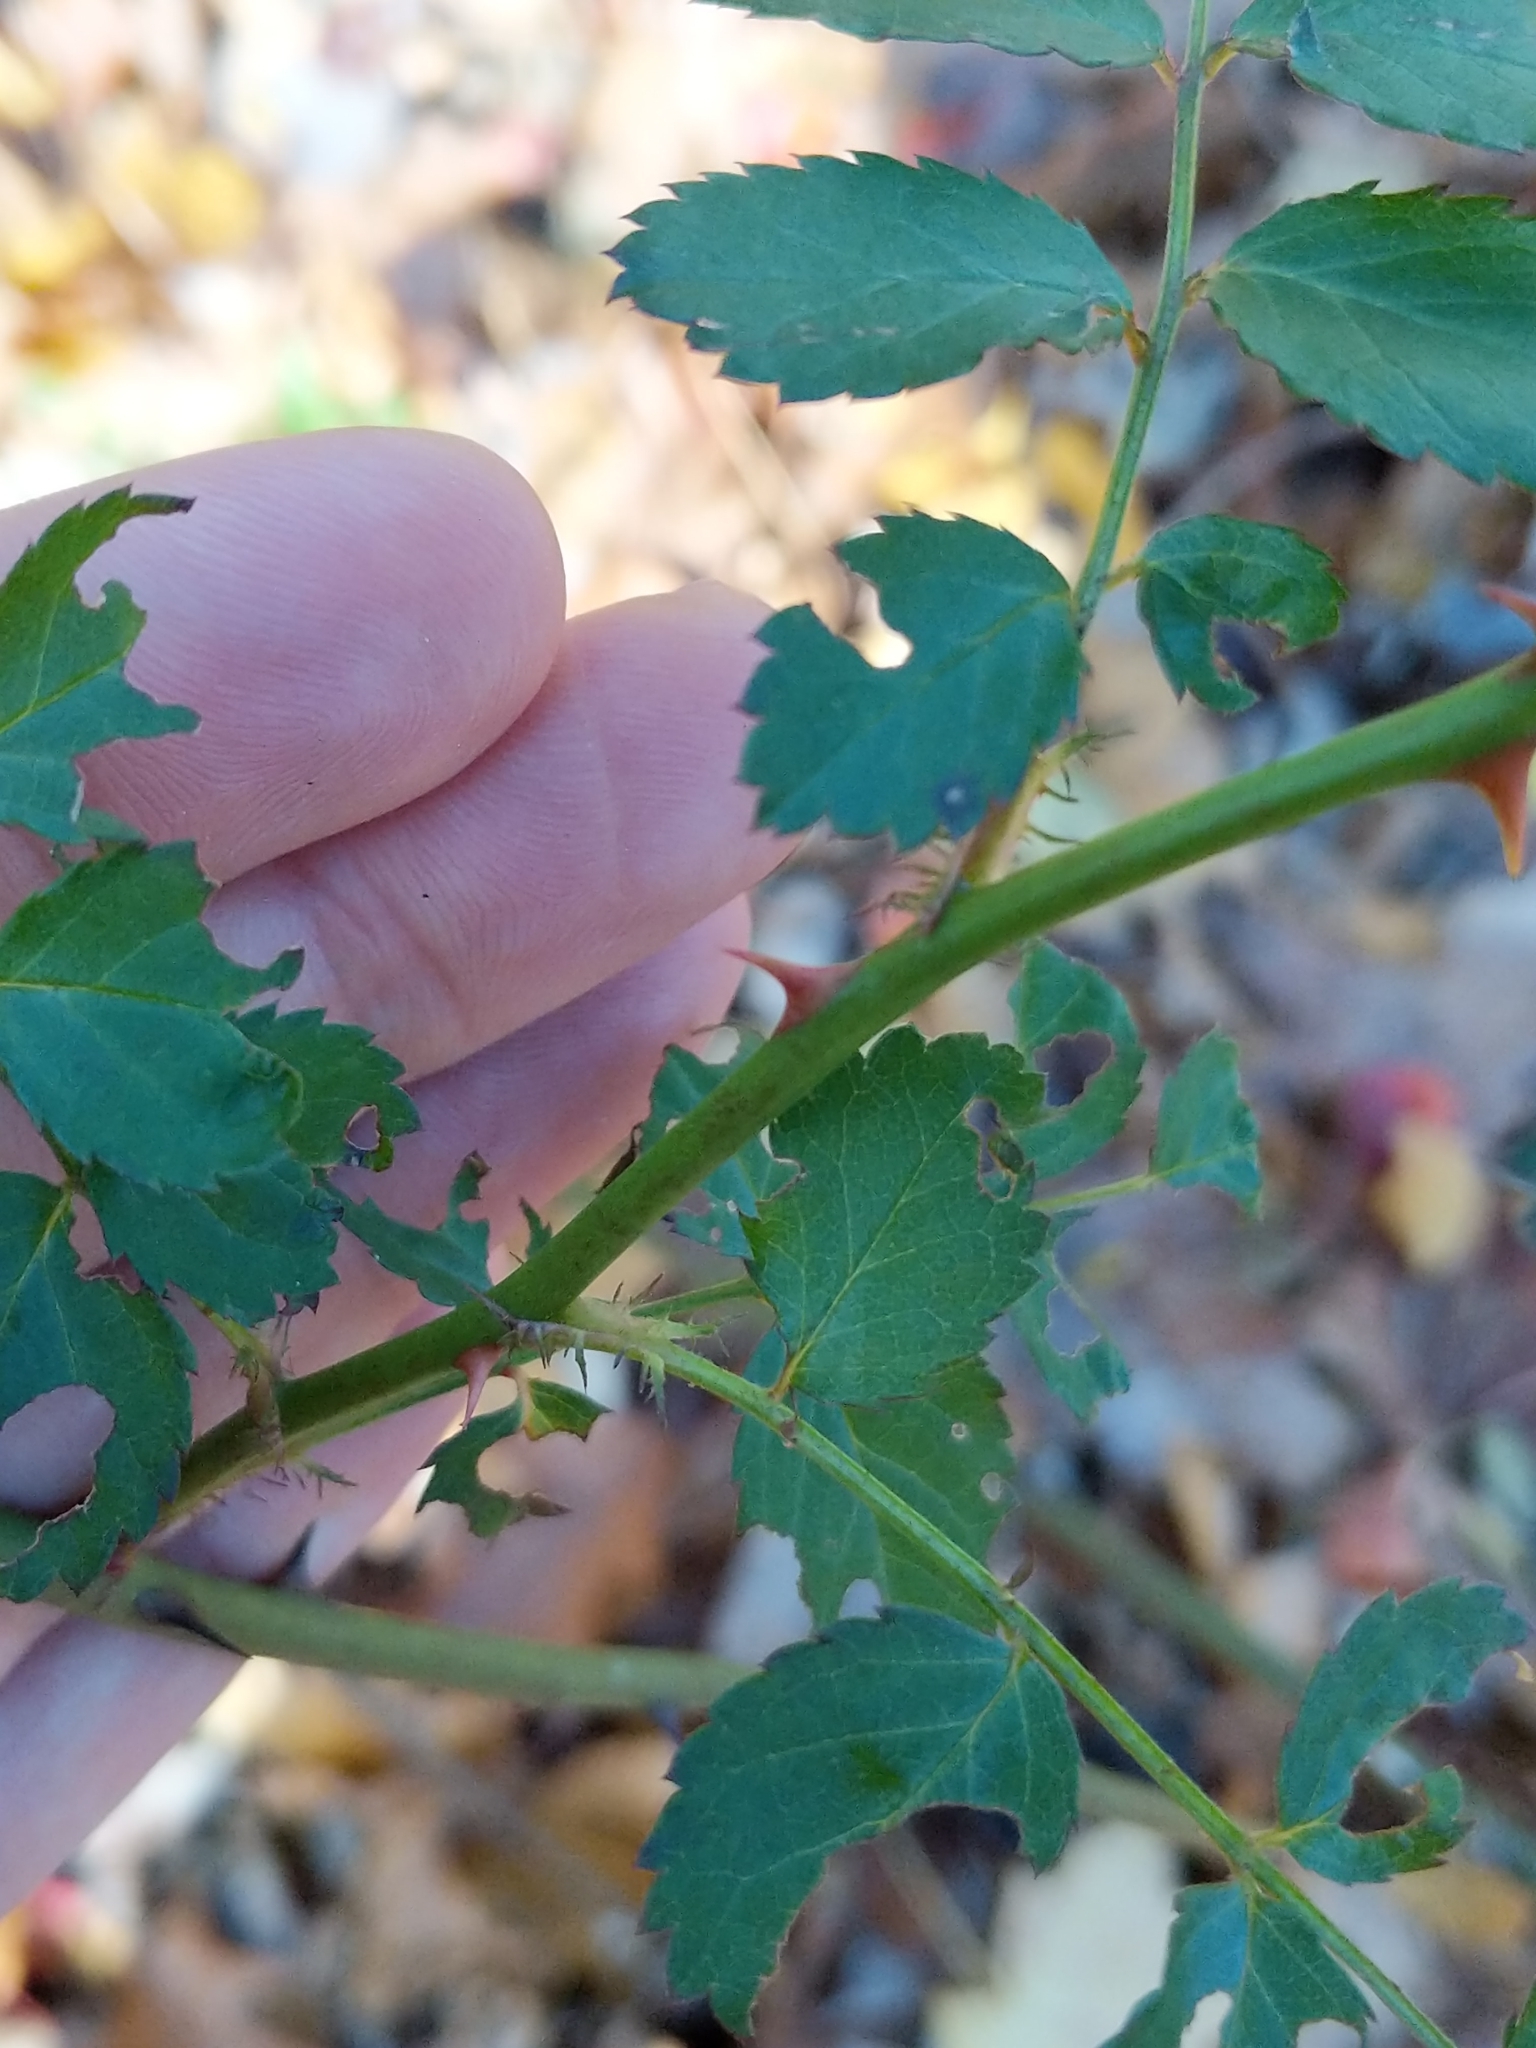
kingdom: Plantae
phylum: Tracheophyta
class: Magnoliopsida
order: Rosales
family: Rosaceae
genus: Rosa
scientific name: Rosa multiflora
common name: Multiflora rose
